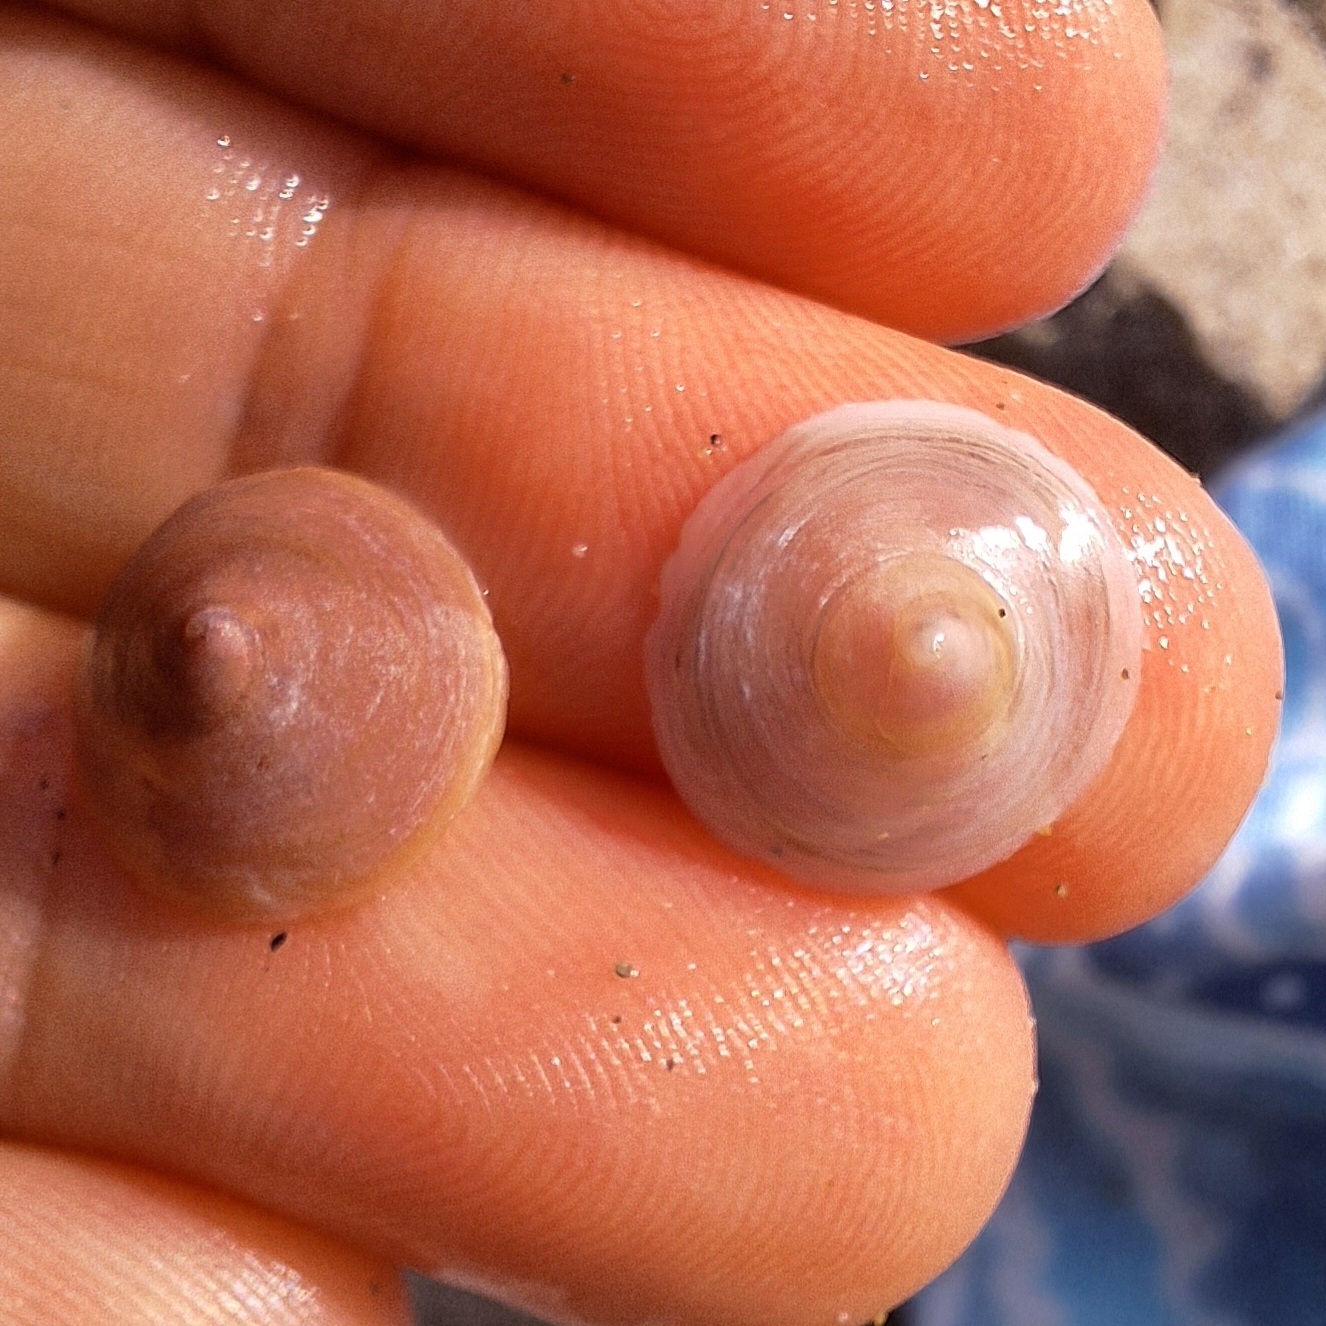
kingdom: Animalia
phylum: Mollusca
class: Gastropoda
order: Littorinimorpha
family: Calyptraeidae
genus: Calyptraea
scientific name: Calyptraea chinensis
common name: Chinaman's hat
